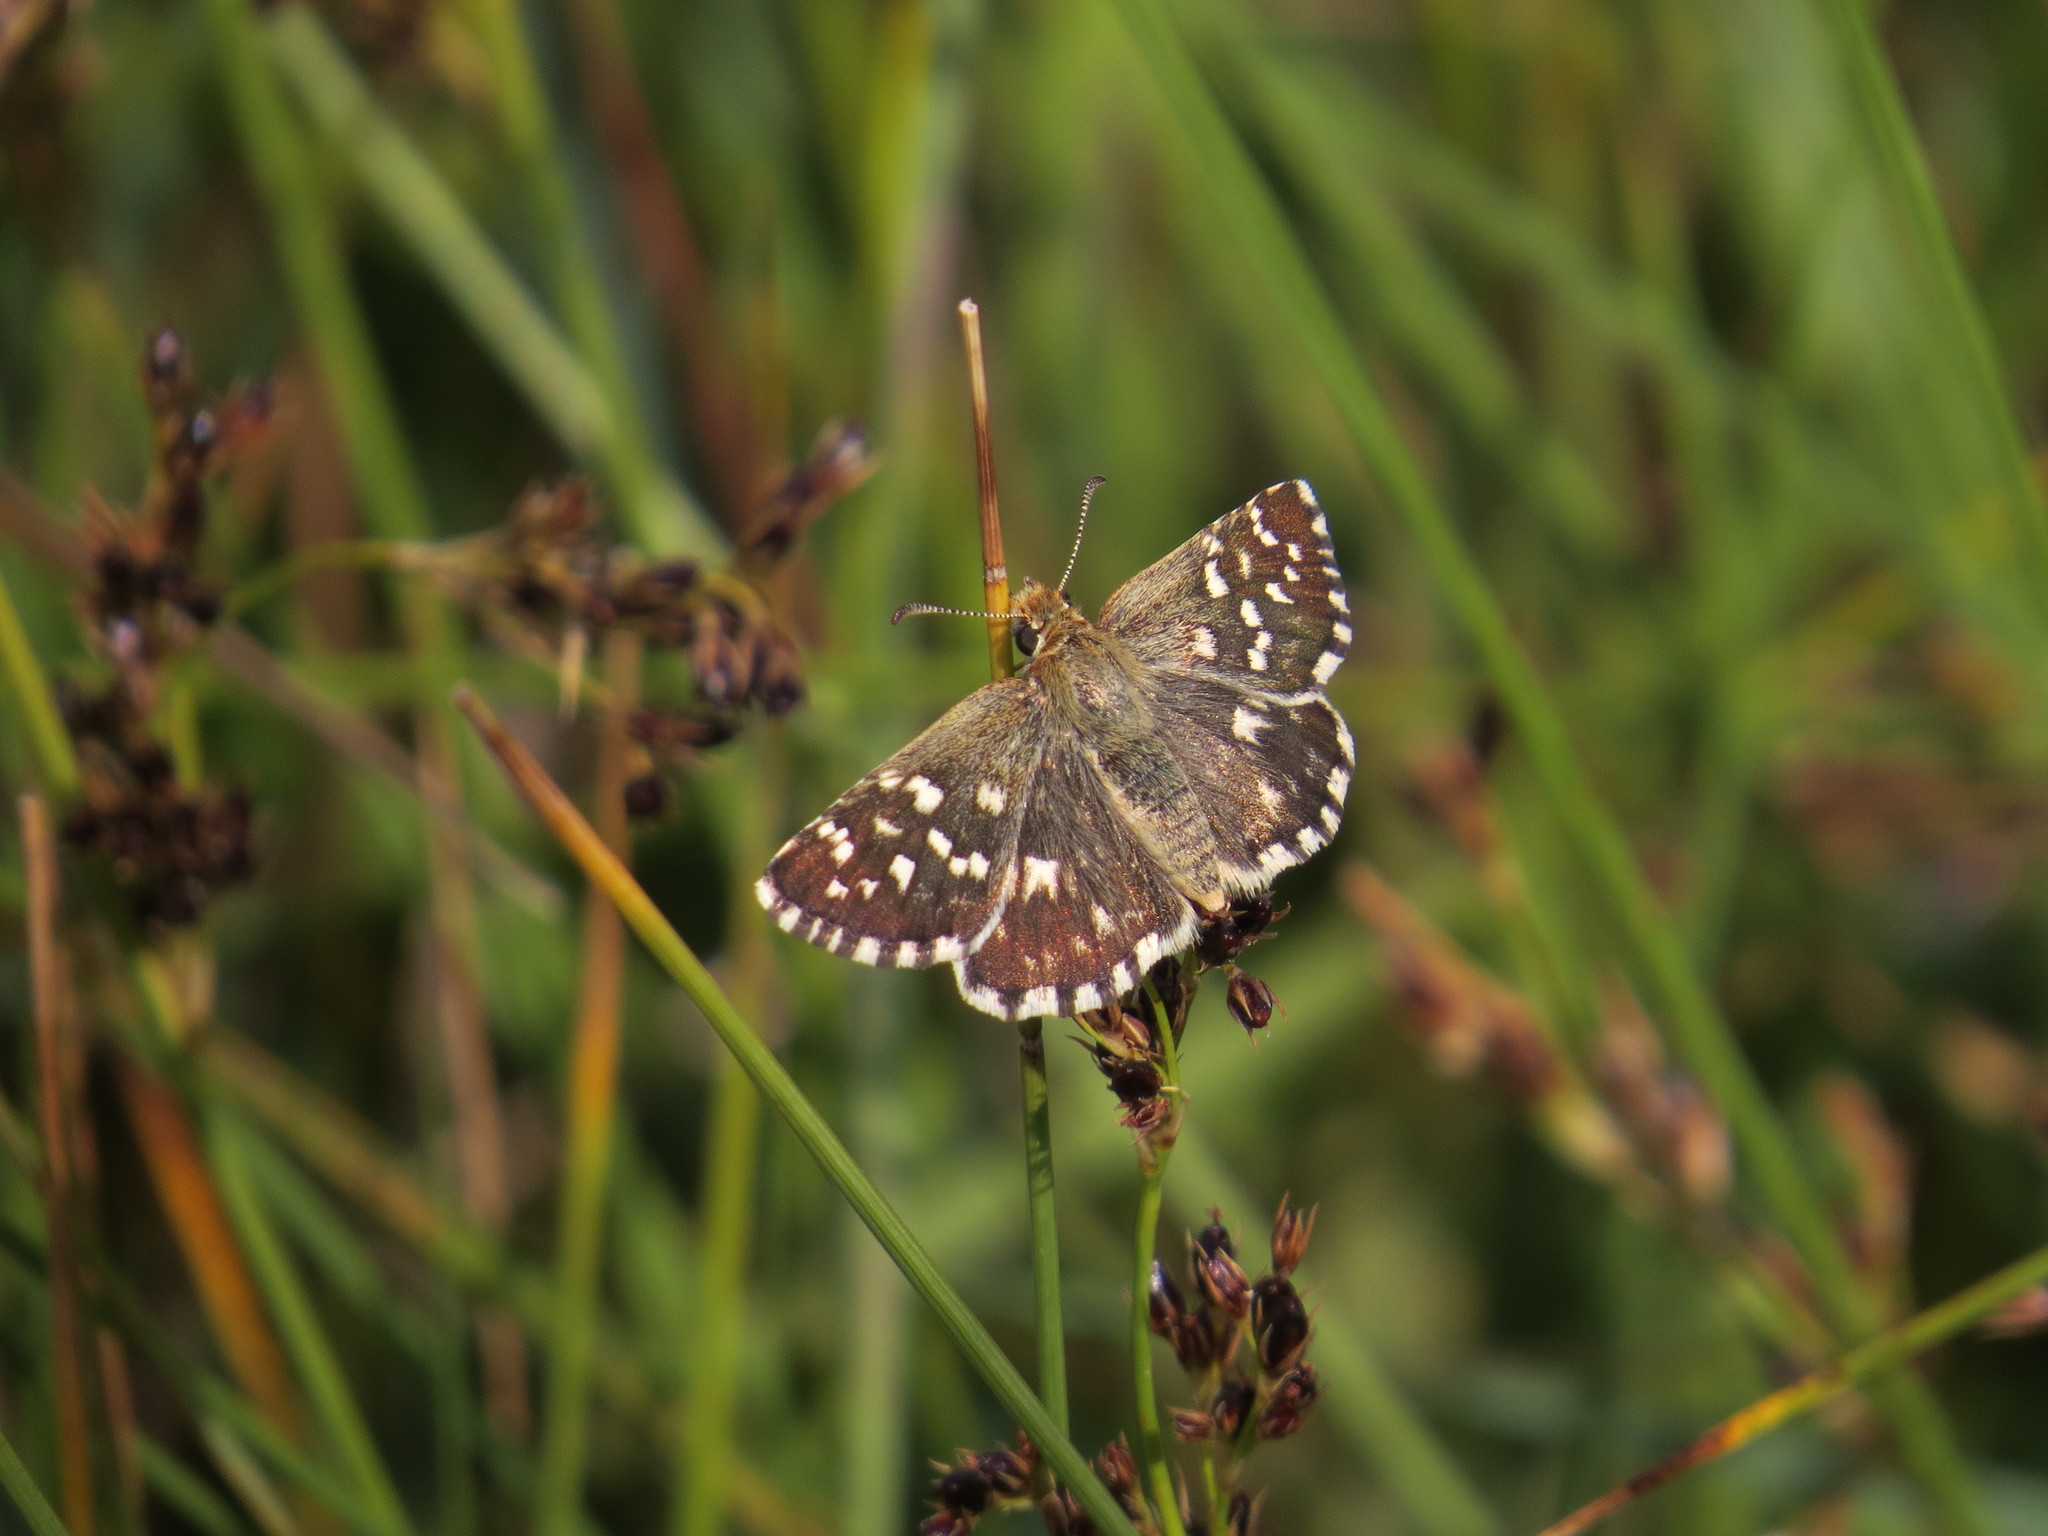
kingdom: Animalia
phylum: Arthropoda
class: Insecta
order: Lepidoptera
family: Hesperiidae
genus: Pyrgus
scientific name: Pyrgus malvoides
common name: Southern grizzled skipper
